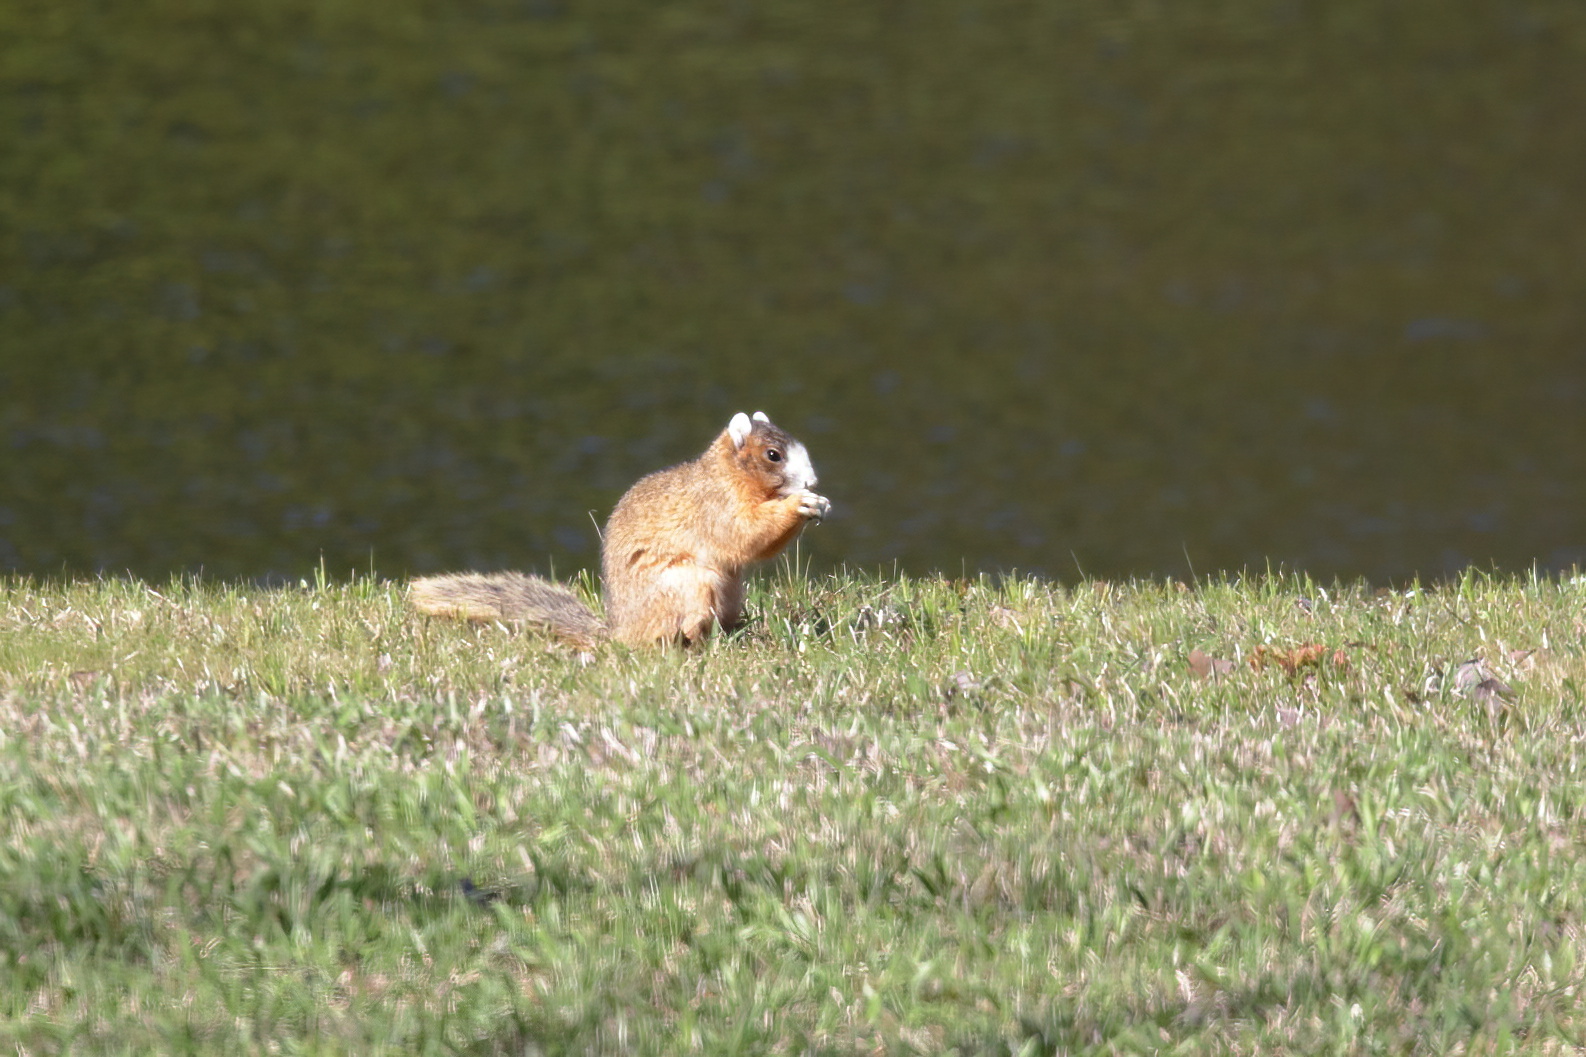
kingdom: Animalia
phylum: Chordata
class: Mammalia
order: Rodentia
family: Sciuridae
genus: Sciurus
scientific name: Sciurus niger
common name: Fox squirrel
